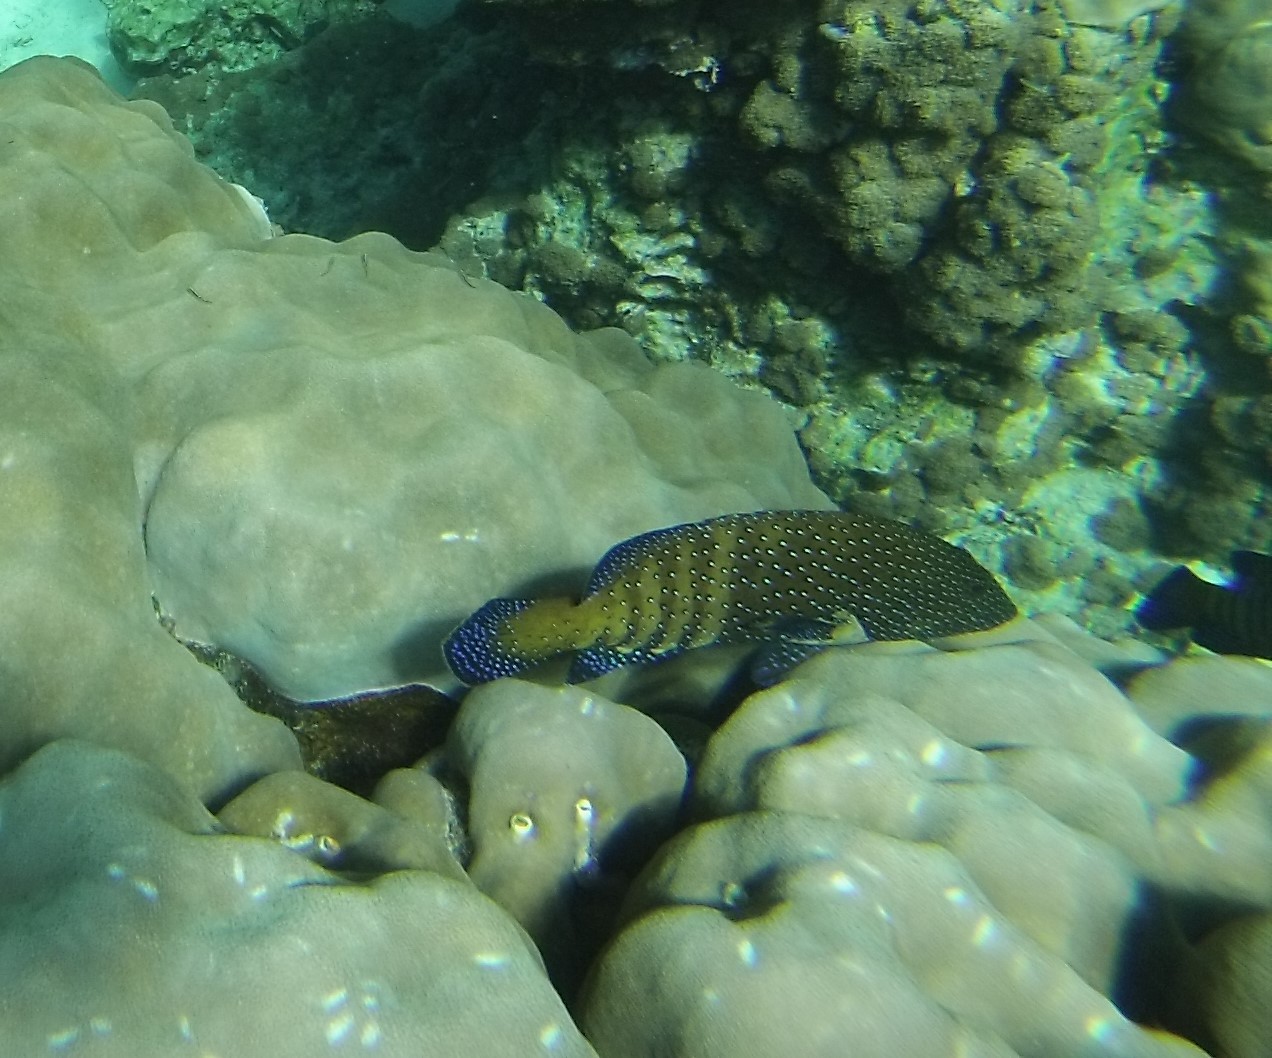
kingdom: Animalia
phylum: Chordata
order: Perciformes
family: Serranidae
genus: Cephalopholis
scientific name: Cephalopholis argus
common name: Peacock grouper
